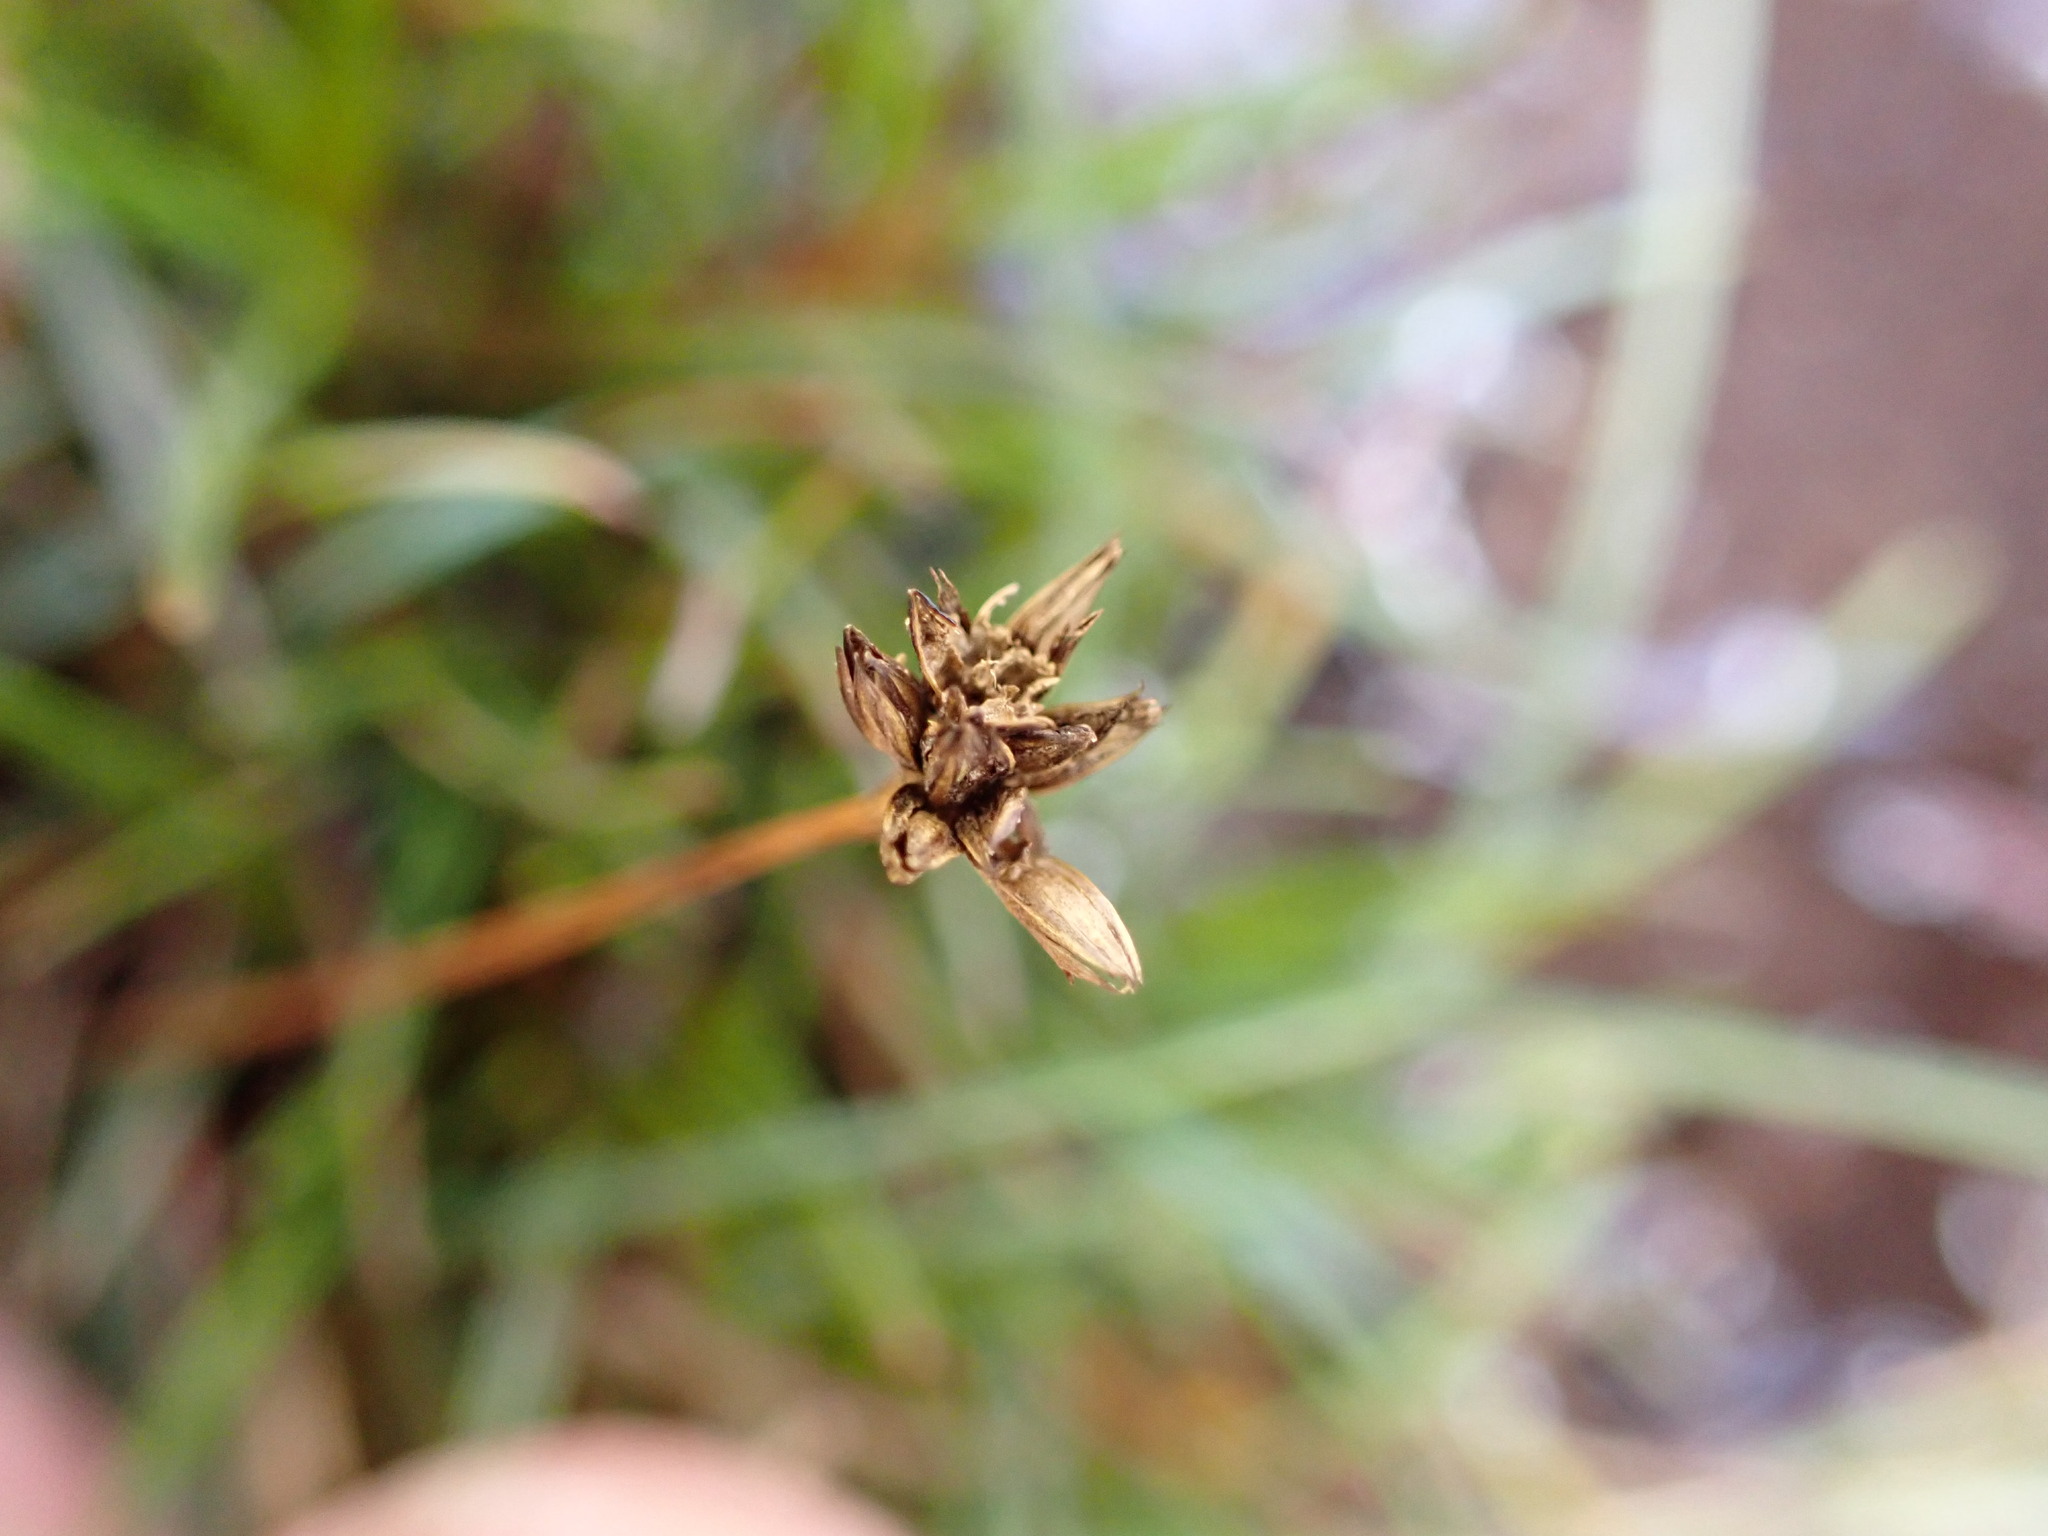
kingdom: Plantae
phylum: Tracheophyta
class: Liliopsida
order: Poales
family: Juncaceae
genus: Juncus
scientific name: Juncus antarcticus
